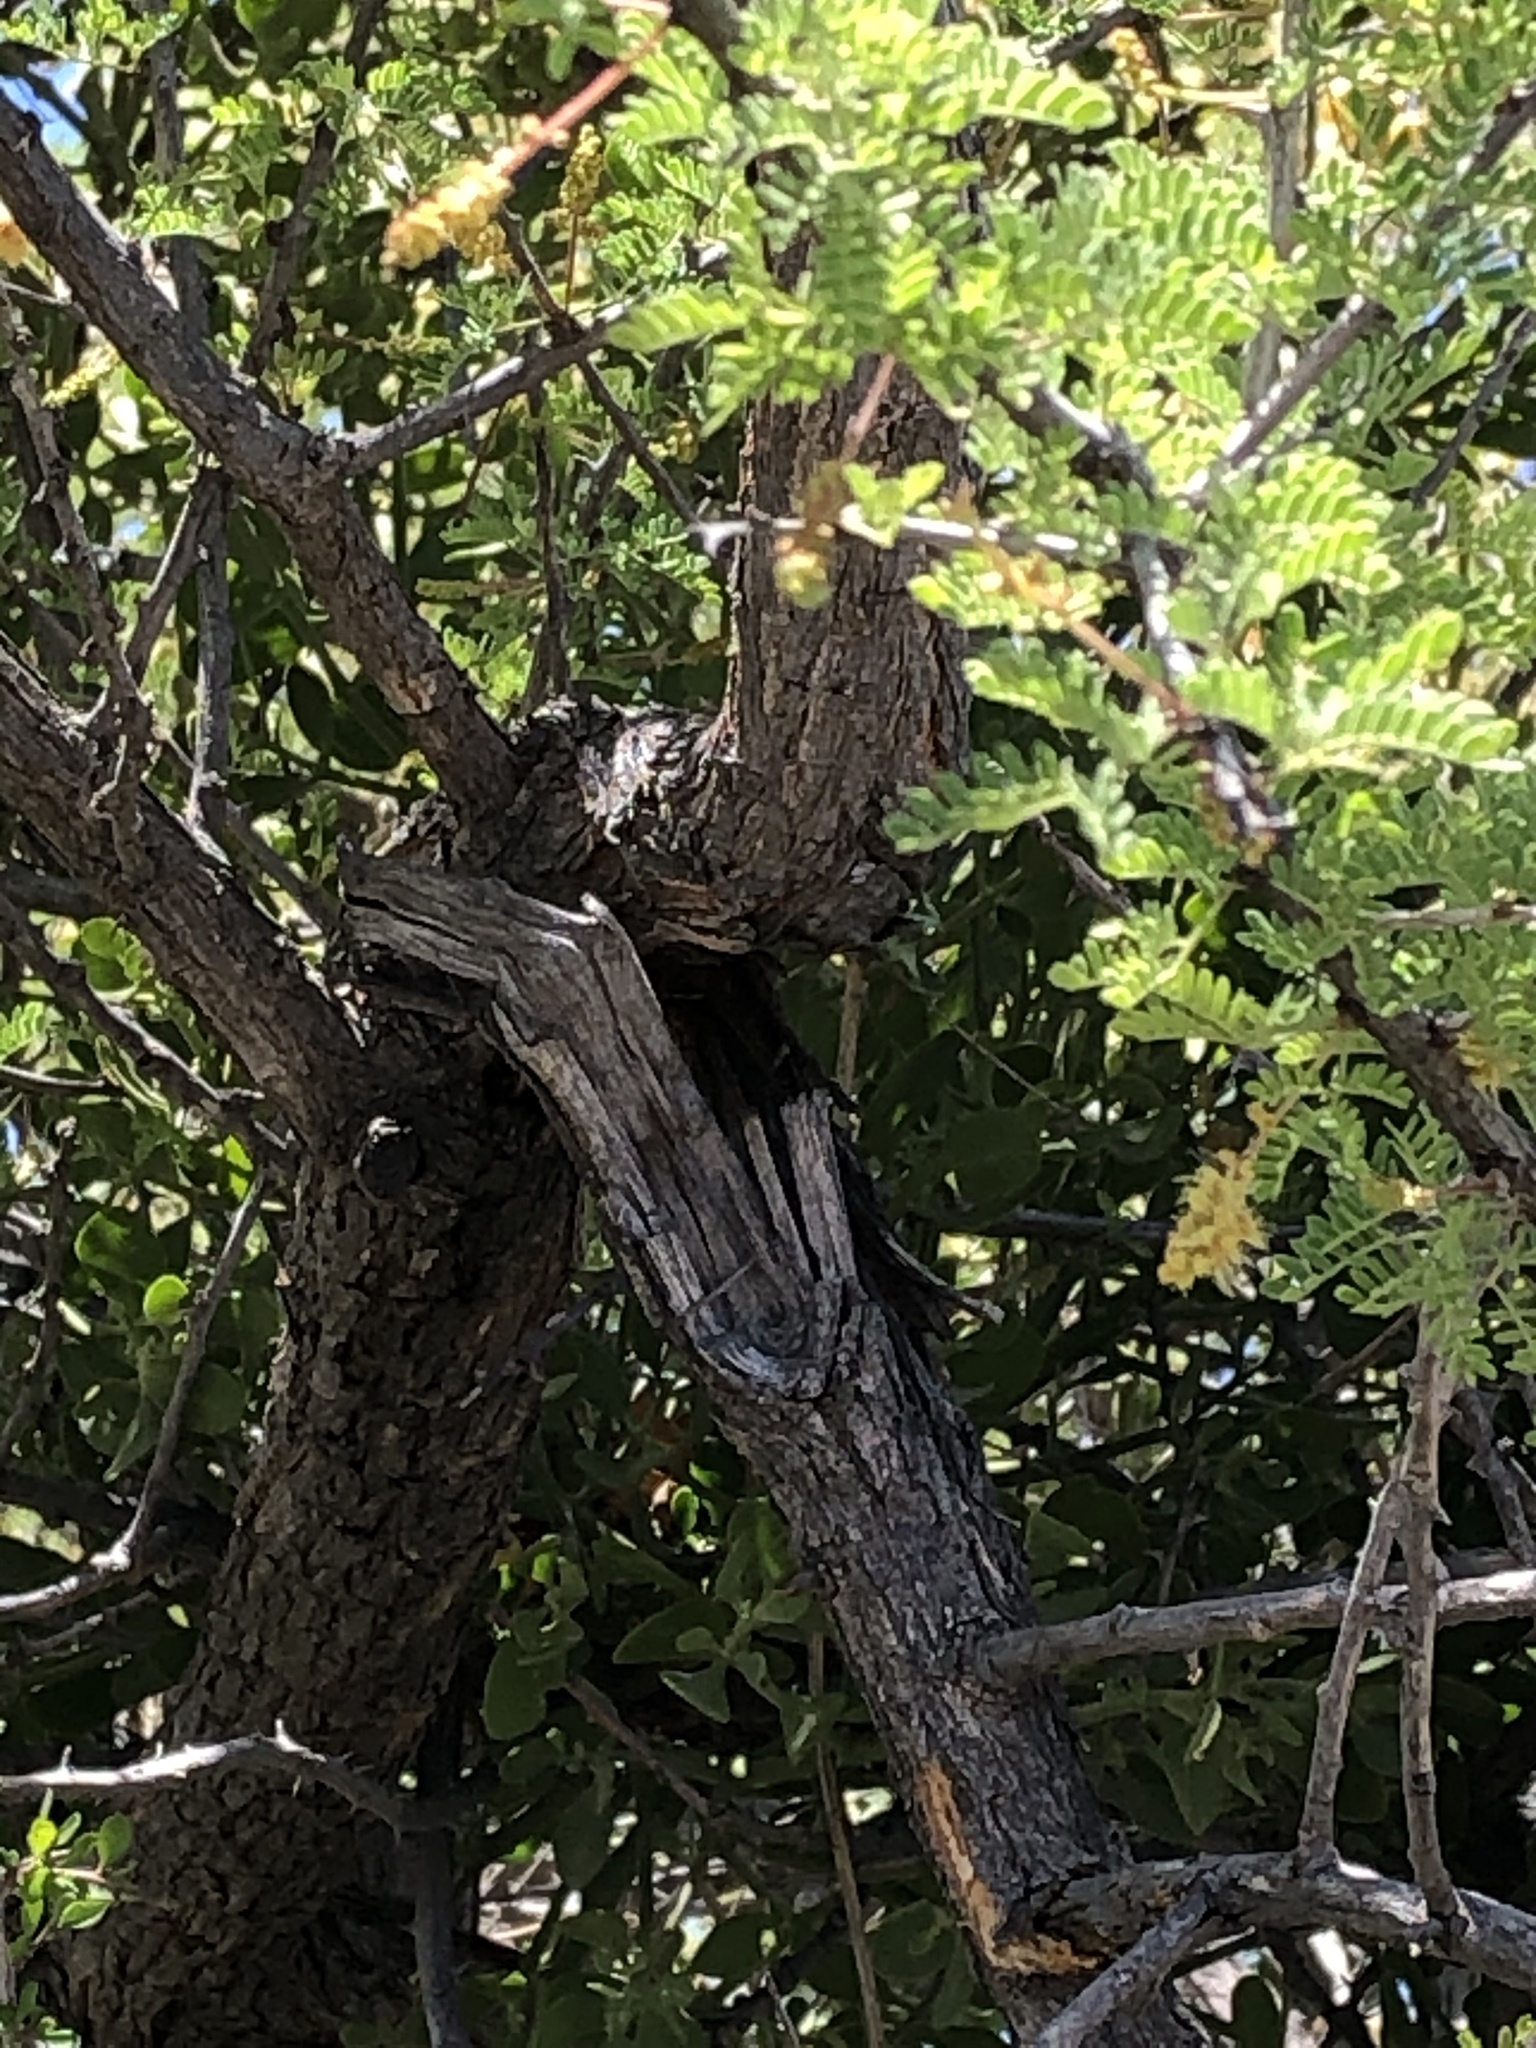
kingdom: Plantae
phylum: Tracheophyta
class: Magnoliopsida
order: Fabales
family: Fabaceae
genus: Senegalia
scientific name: Senegalia greggii
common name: Texas-mimosa
